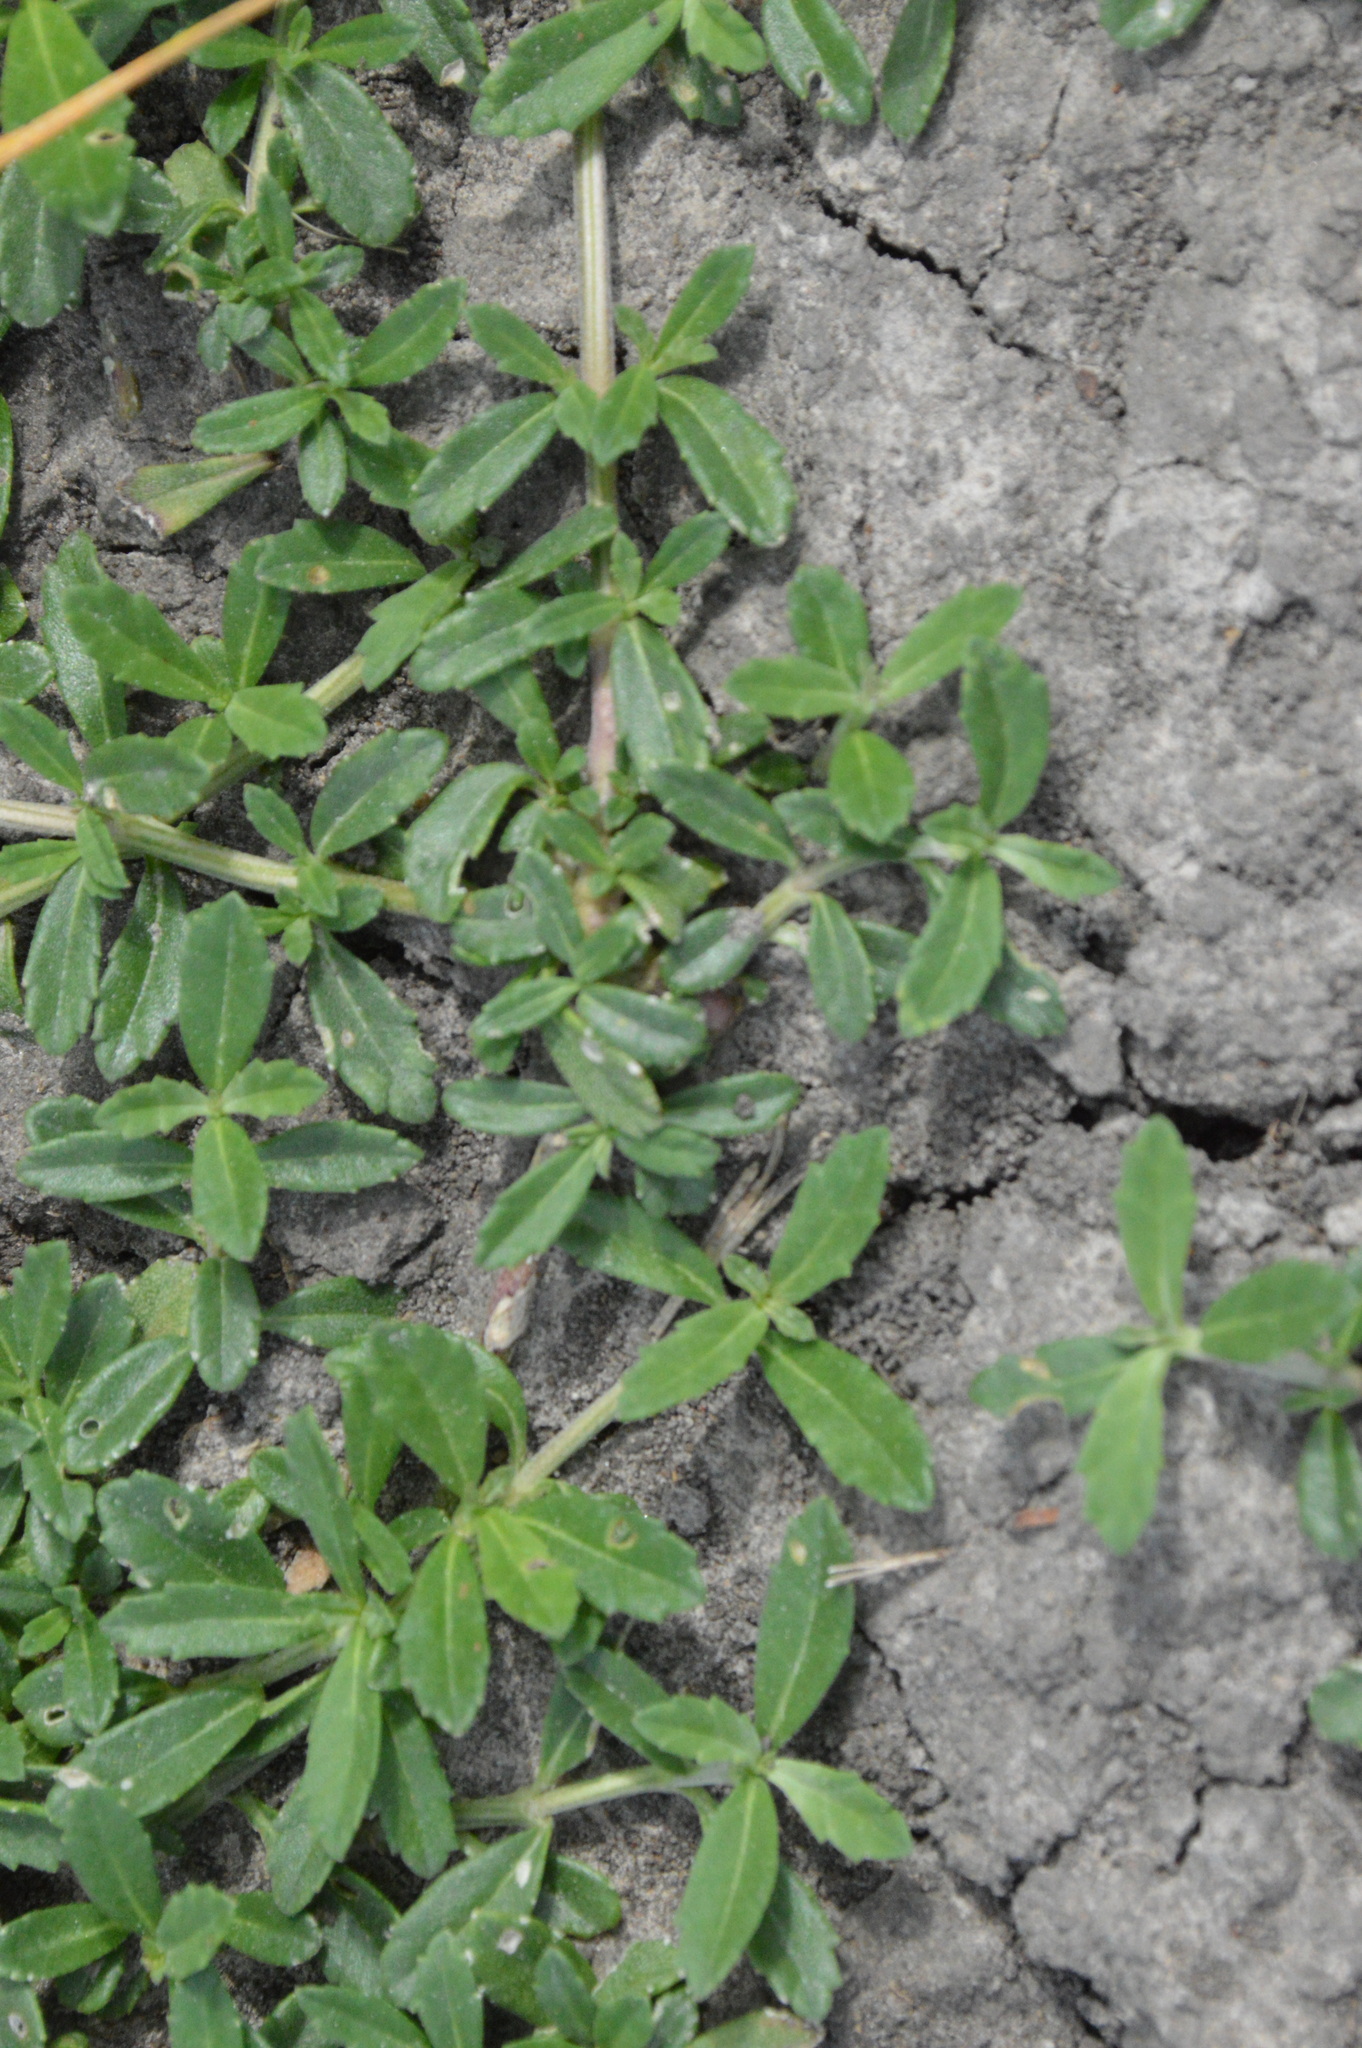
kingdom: Plantae
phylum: Tracheophyta
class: Magnoliopsida
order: Lamiales
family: Verbenaceae
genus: Phyla
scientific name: Phyla nodiflora
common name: Frogfruit
